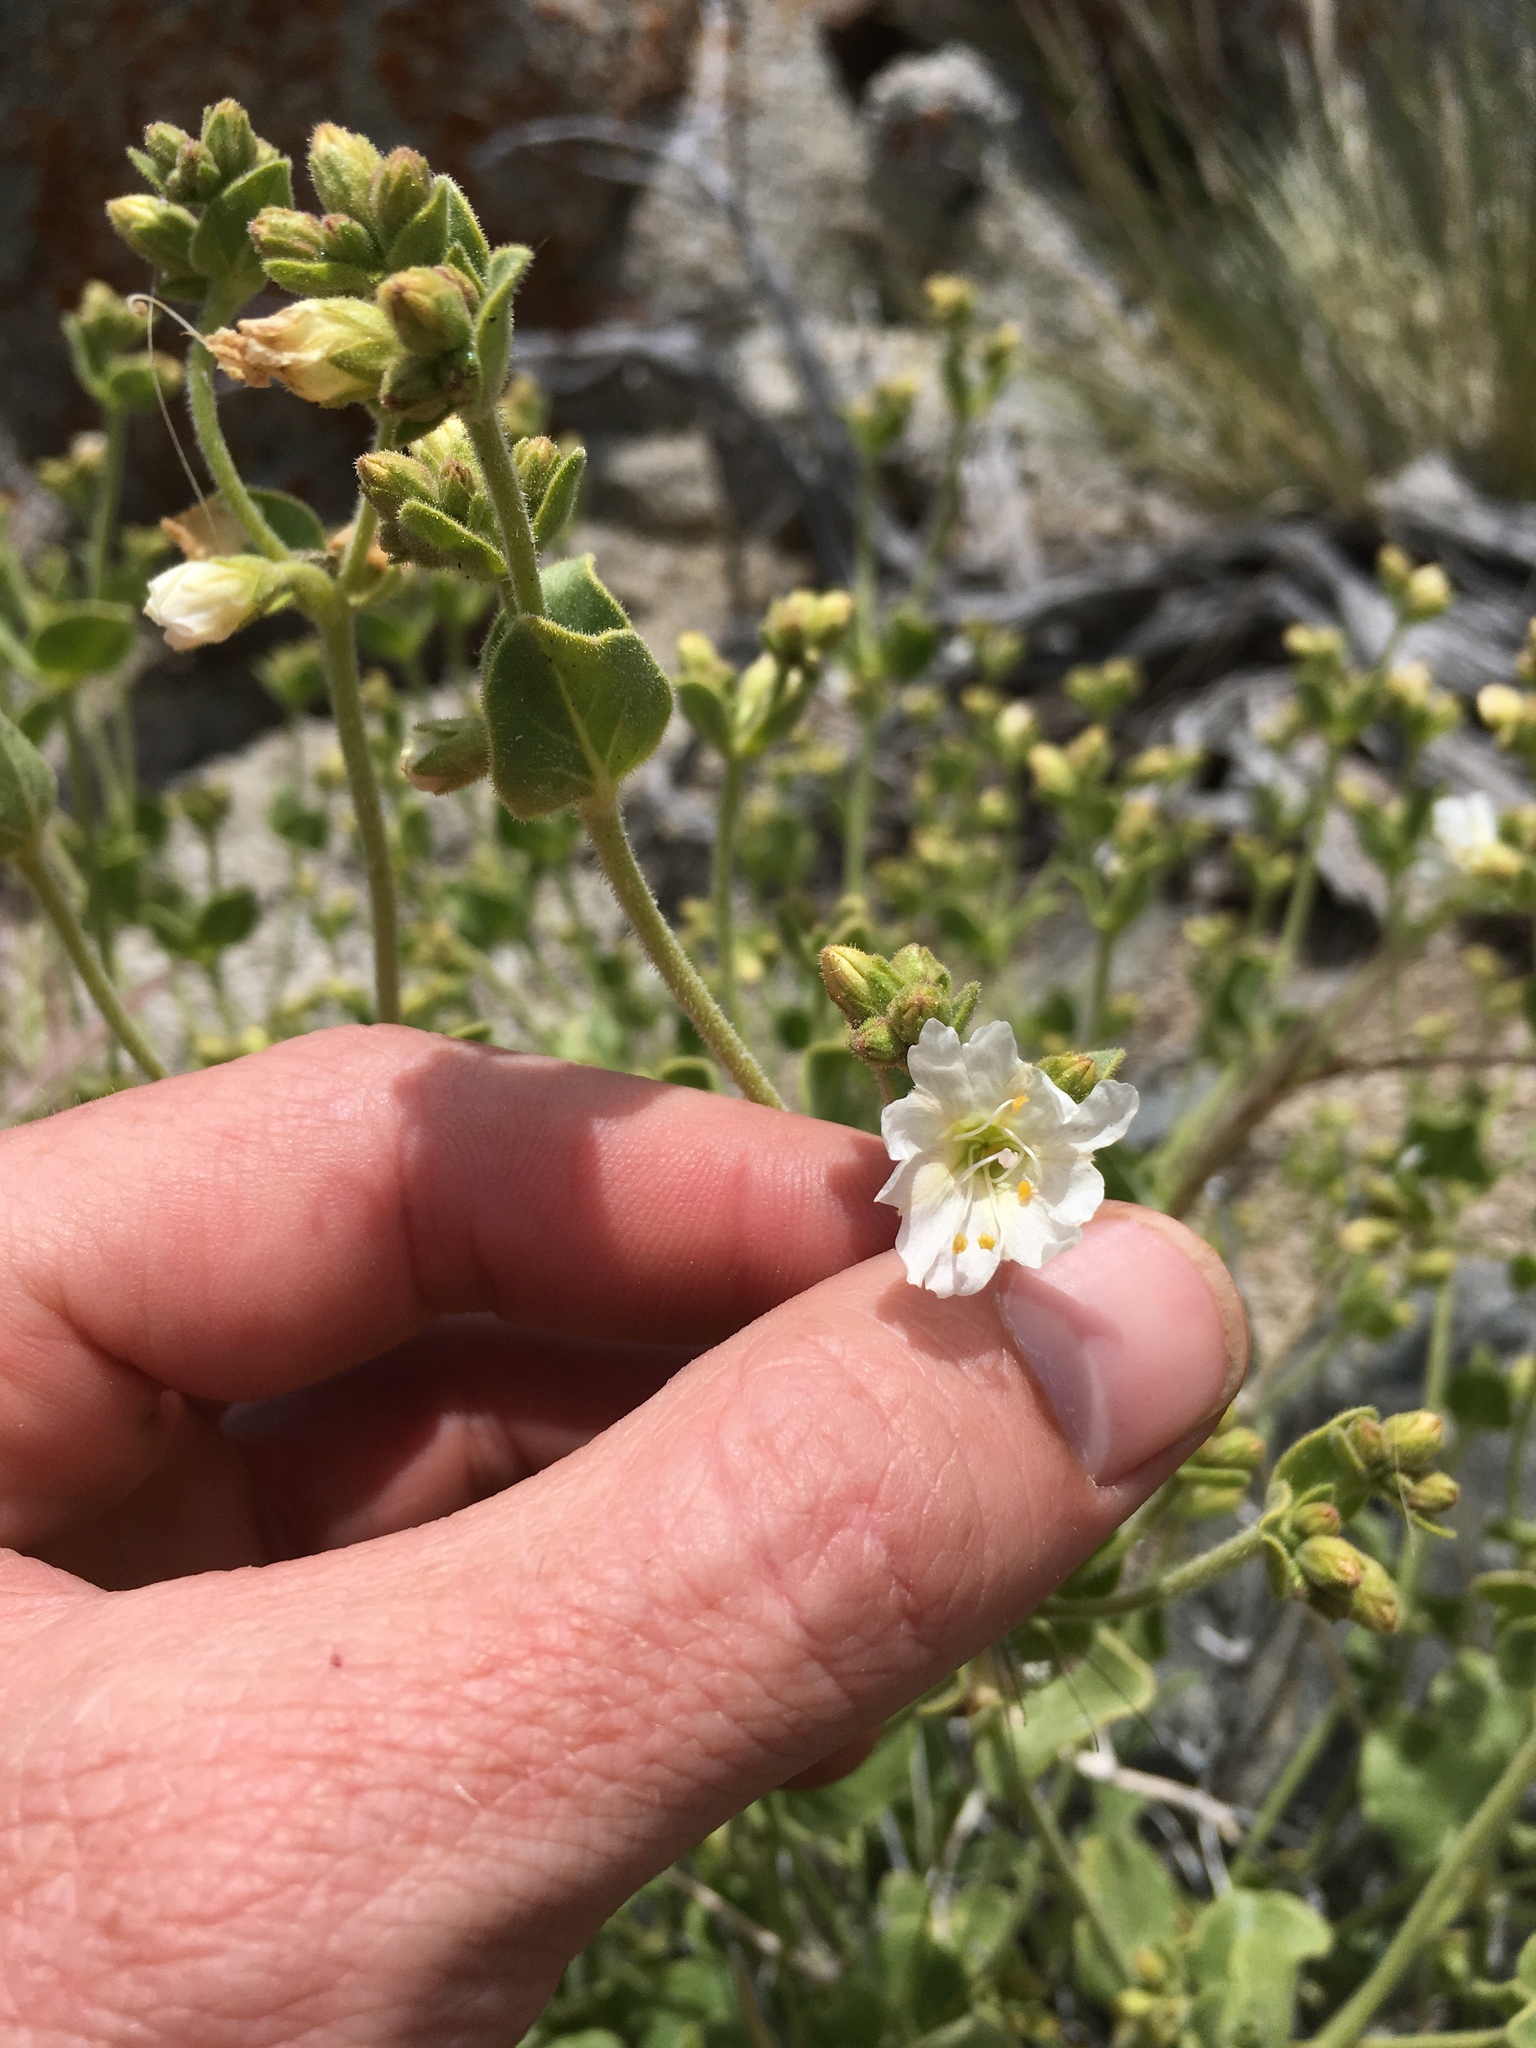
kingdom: Plantae
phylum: Tracheophyta
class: Magnoliopsida
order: Caryophyllales
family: Nyctaginaceae
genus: Mirabilis
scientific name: Mirabilis laevis
